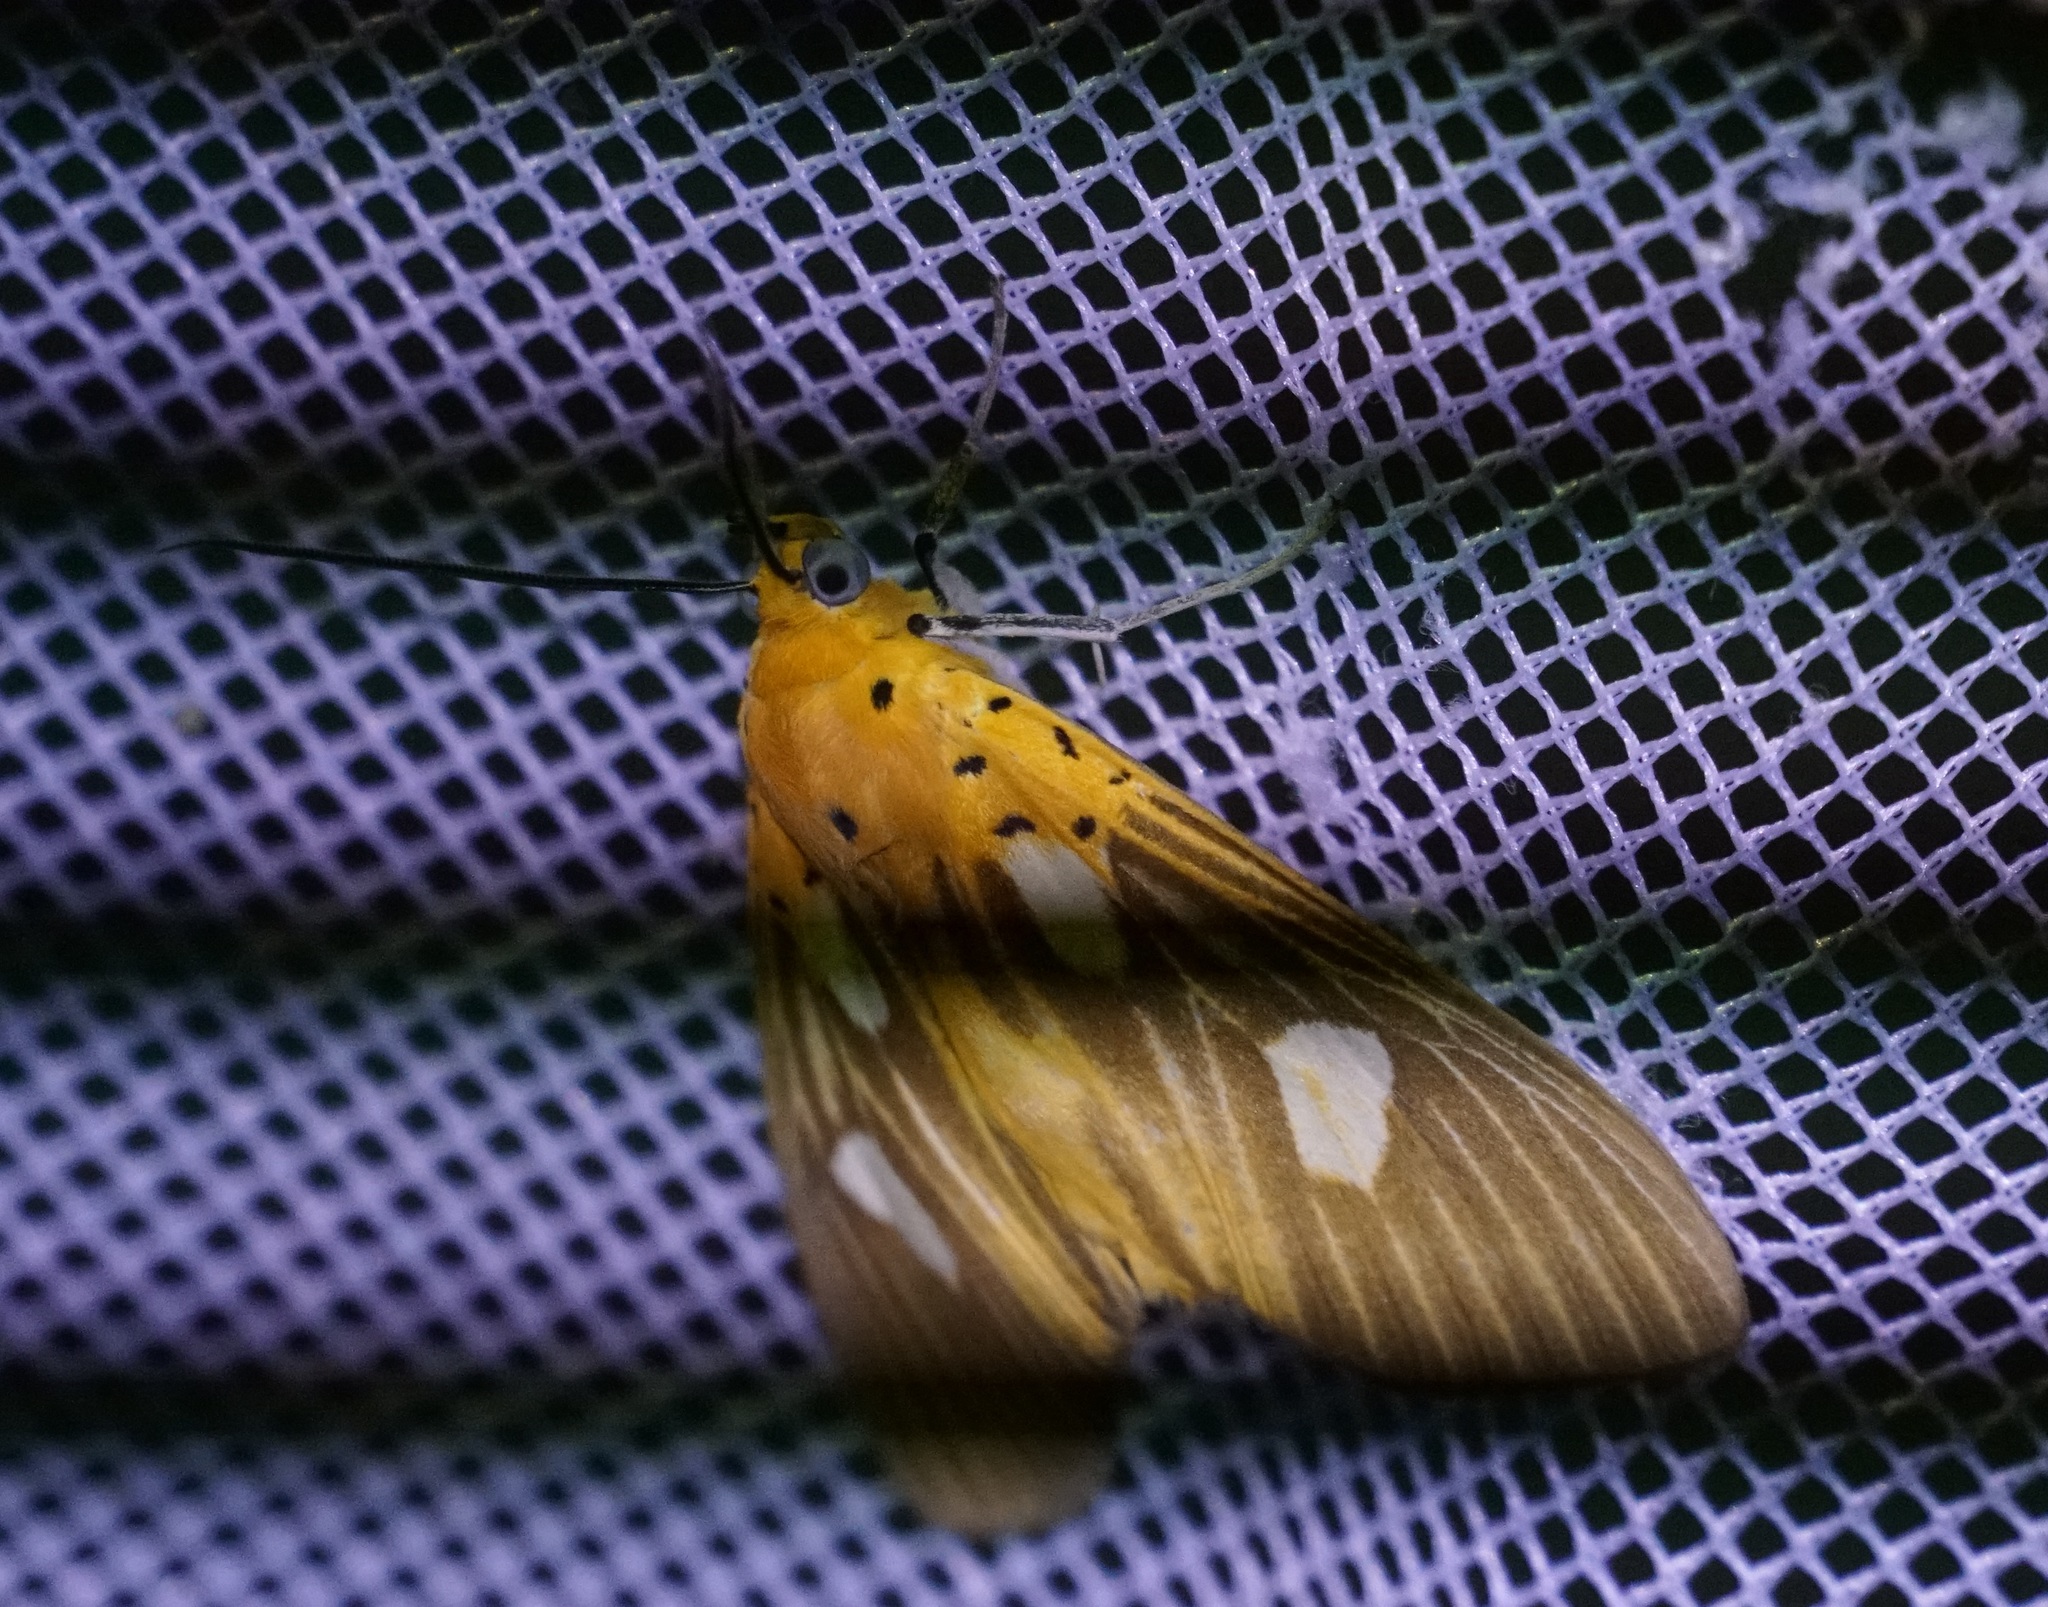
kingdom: Animalia
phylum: Arthropoda
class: Insecta
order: Lepidoptera
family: Erebidae
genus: Asota
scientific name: Asota orbona
